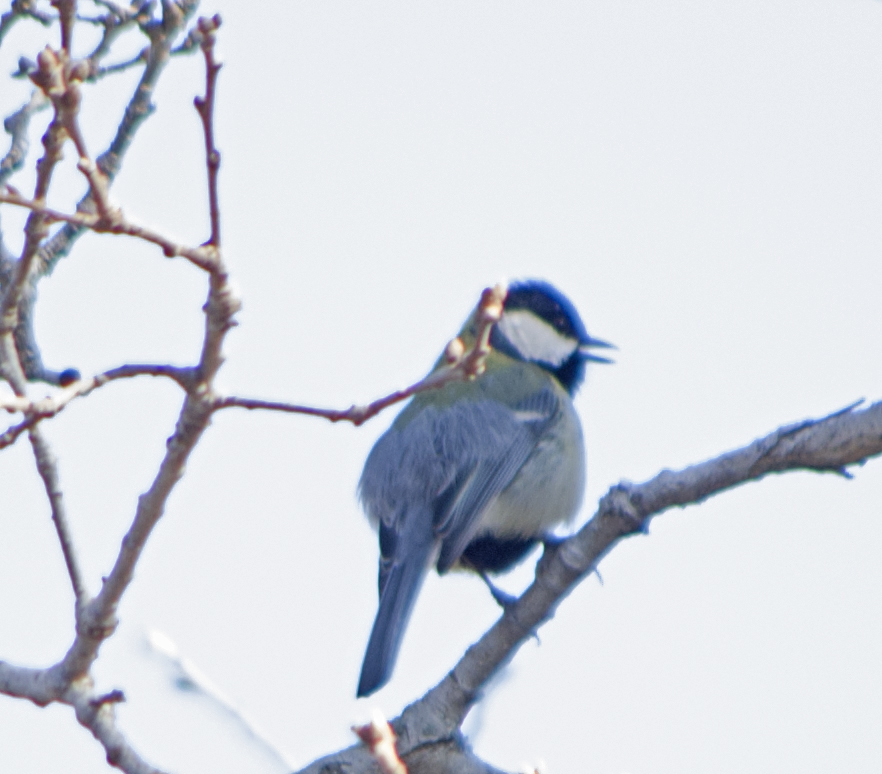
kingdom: Animalia
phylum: Chordata
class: Aves
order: Passeriformes
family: Paridae
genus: Parus
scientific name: Parus major
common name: Great tit
